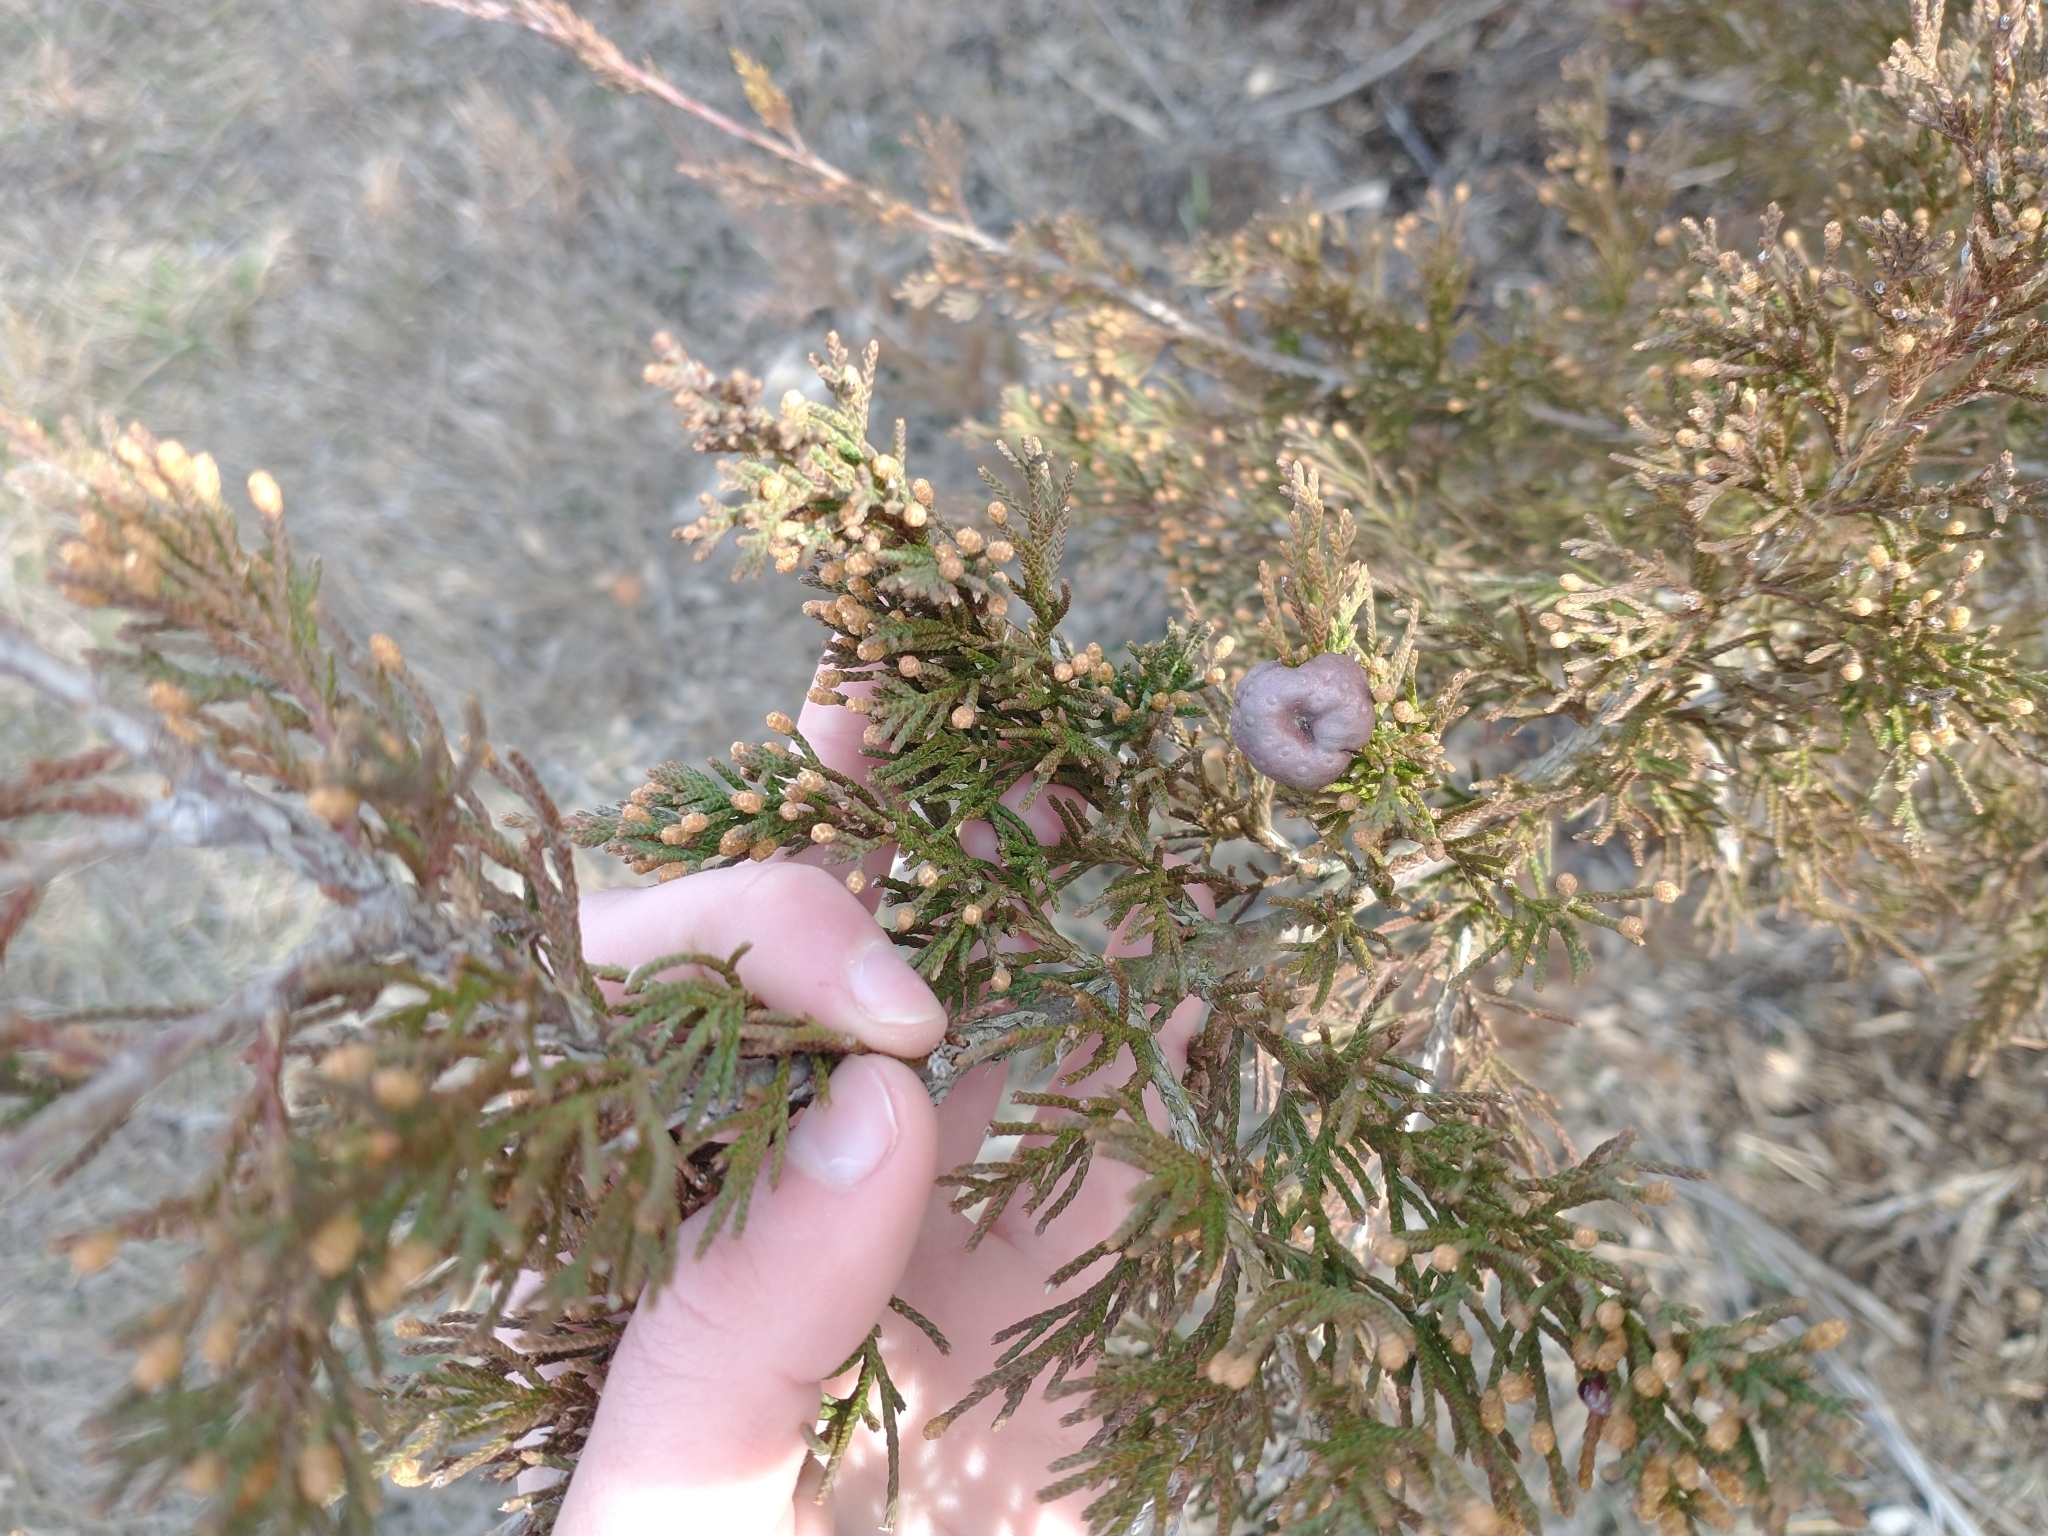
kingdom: Plantae
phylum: Tracheophyta
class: Pinopsida
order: Pinales
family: Cupressaceae
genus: Juniperus
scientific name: Juniperus virginiana
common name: Red juniper
